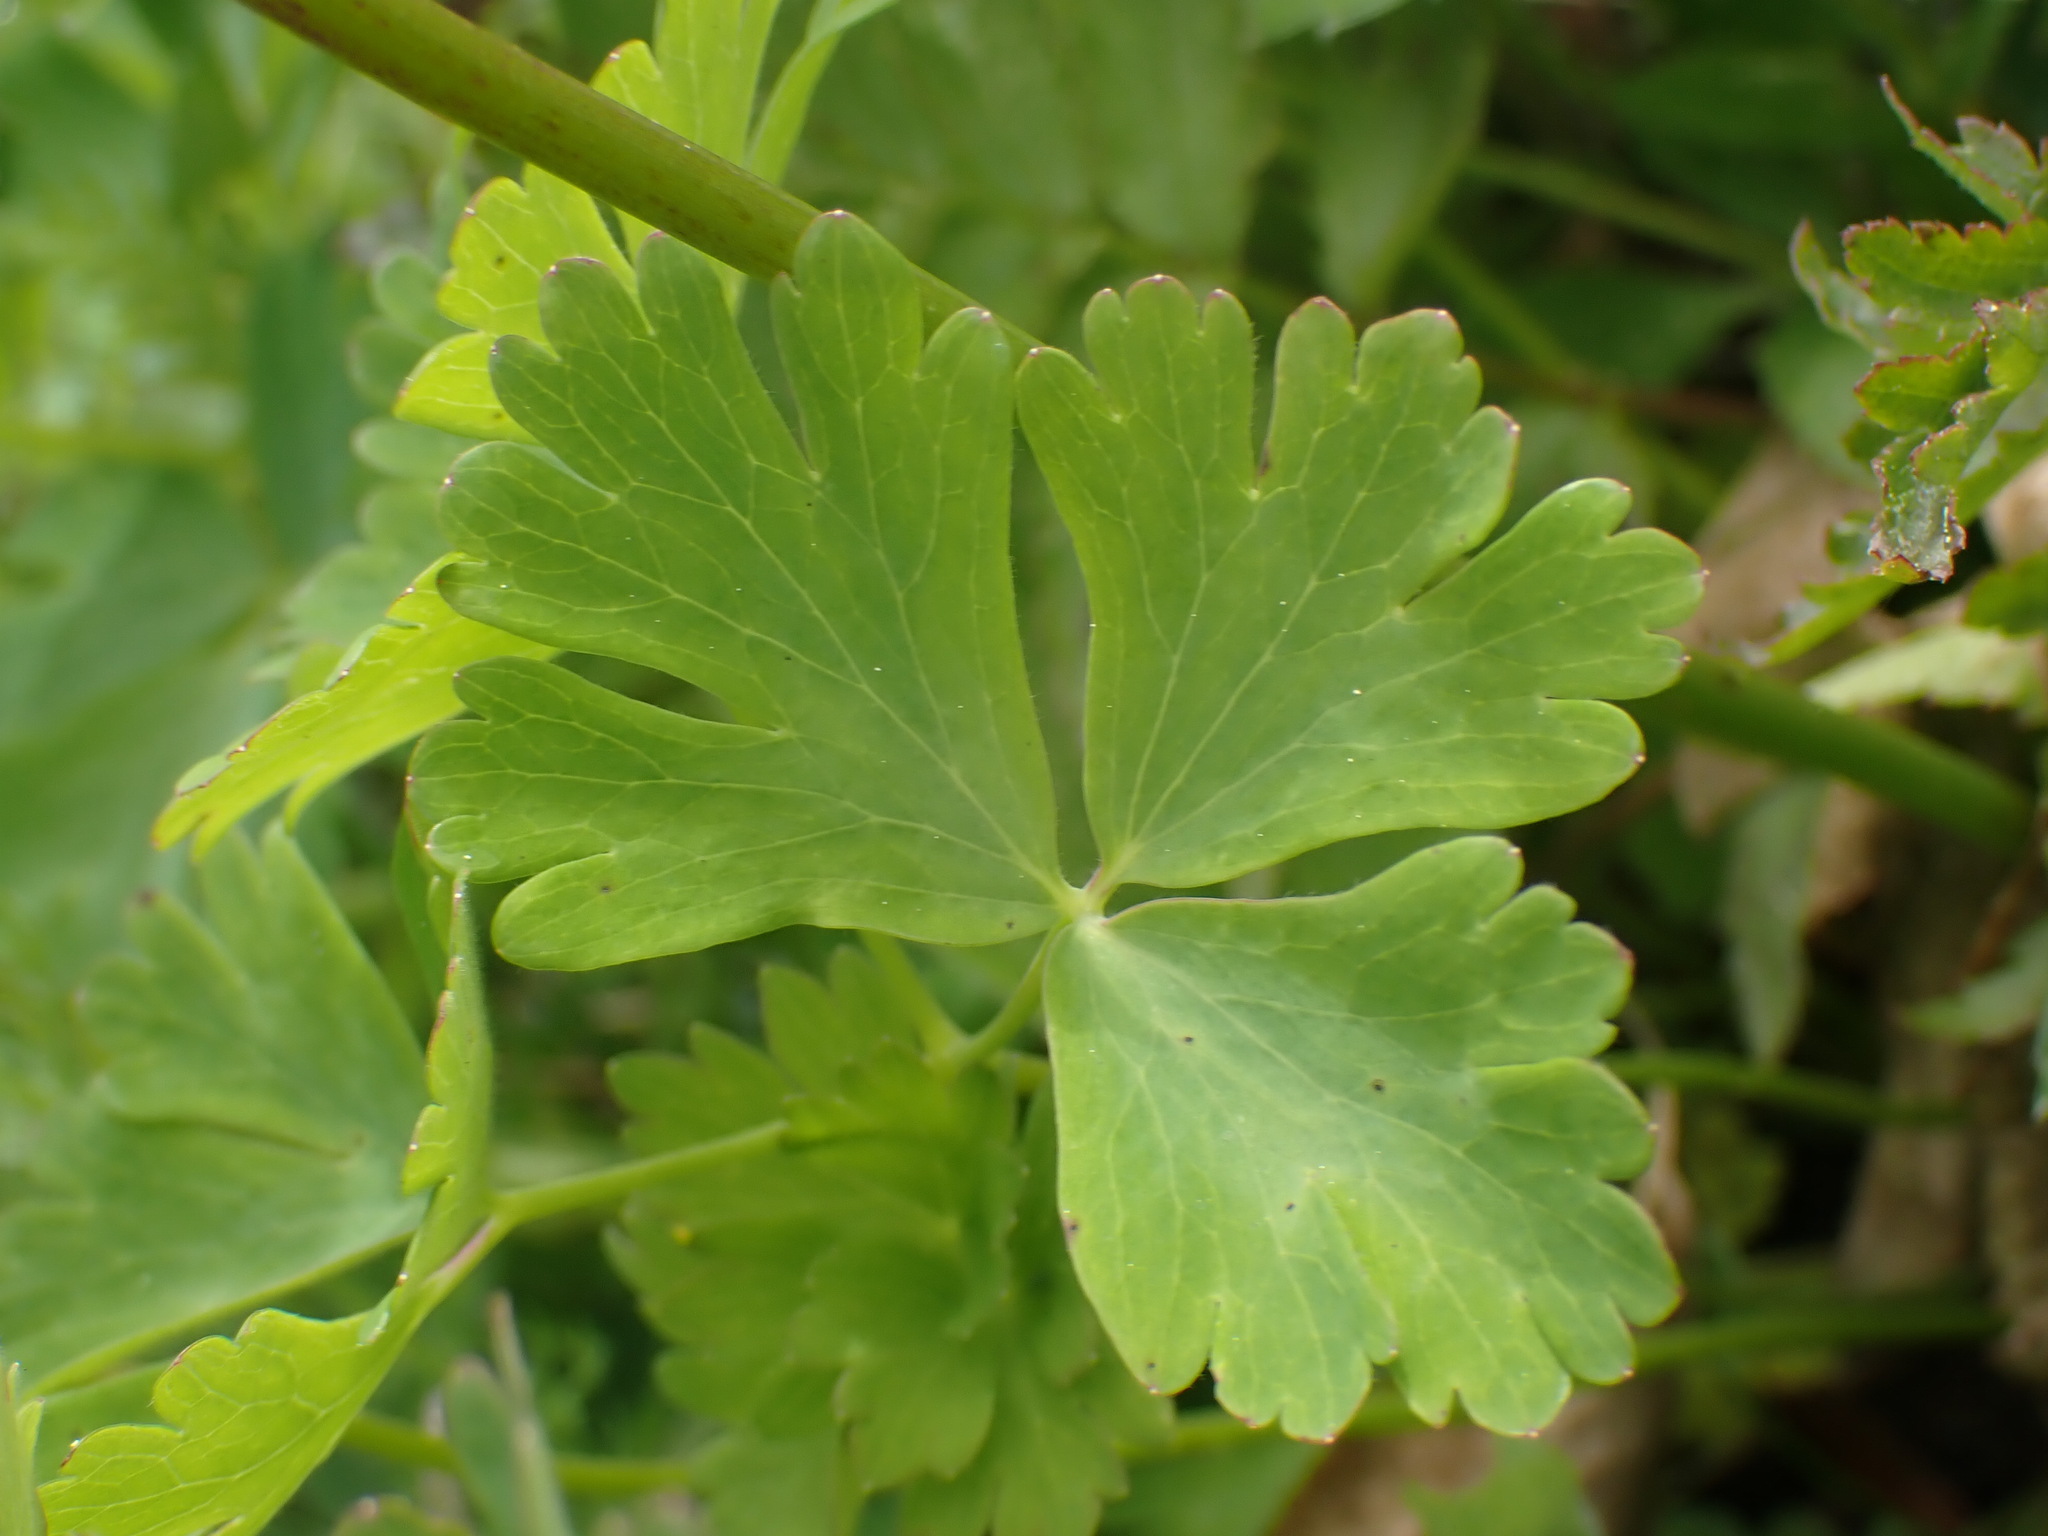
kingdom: Plantae
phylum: Tracheophyta
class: Magnoliopsida
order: Ranunculales
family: Ranunculaceae
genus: Aquilegia
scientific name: Aquilegia formosa
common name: Sitka columbine
